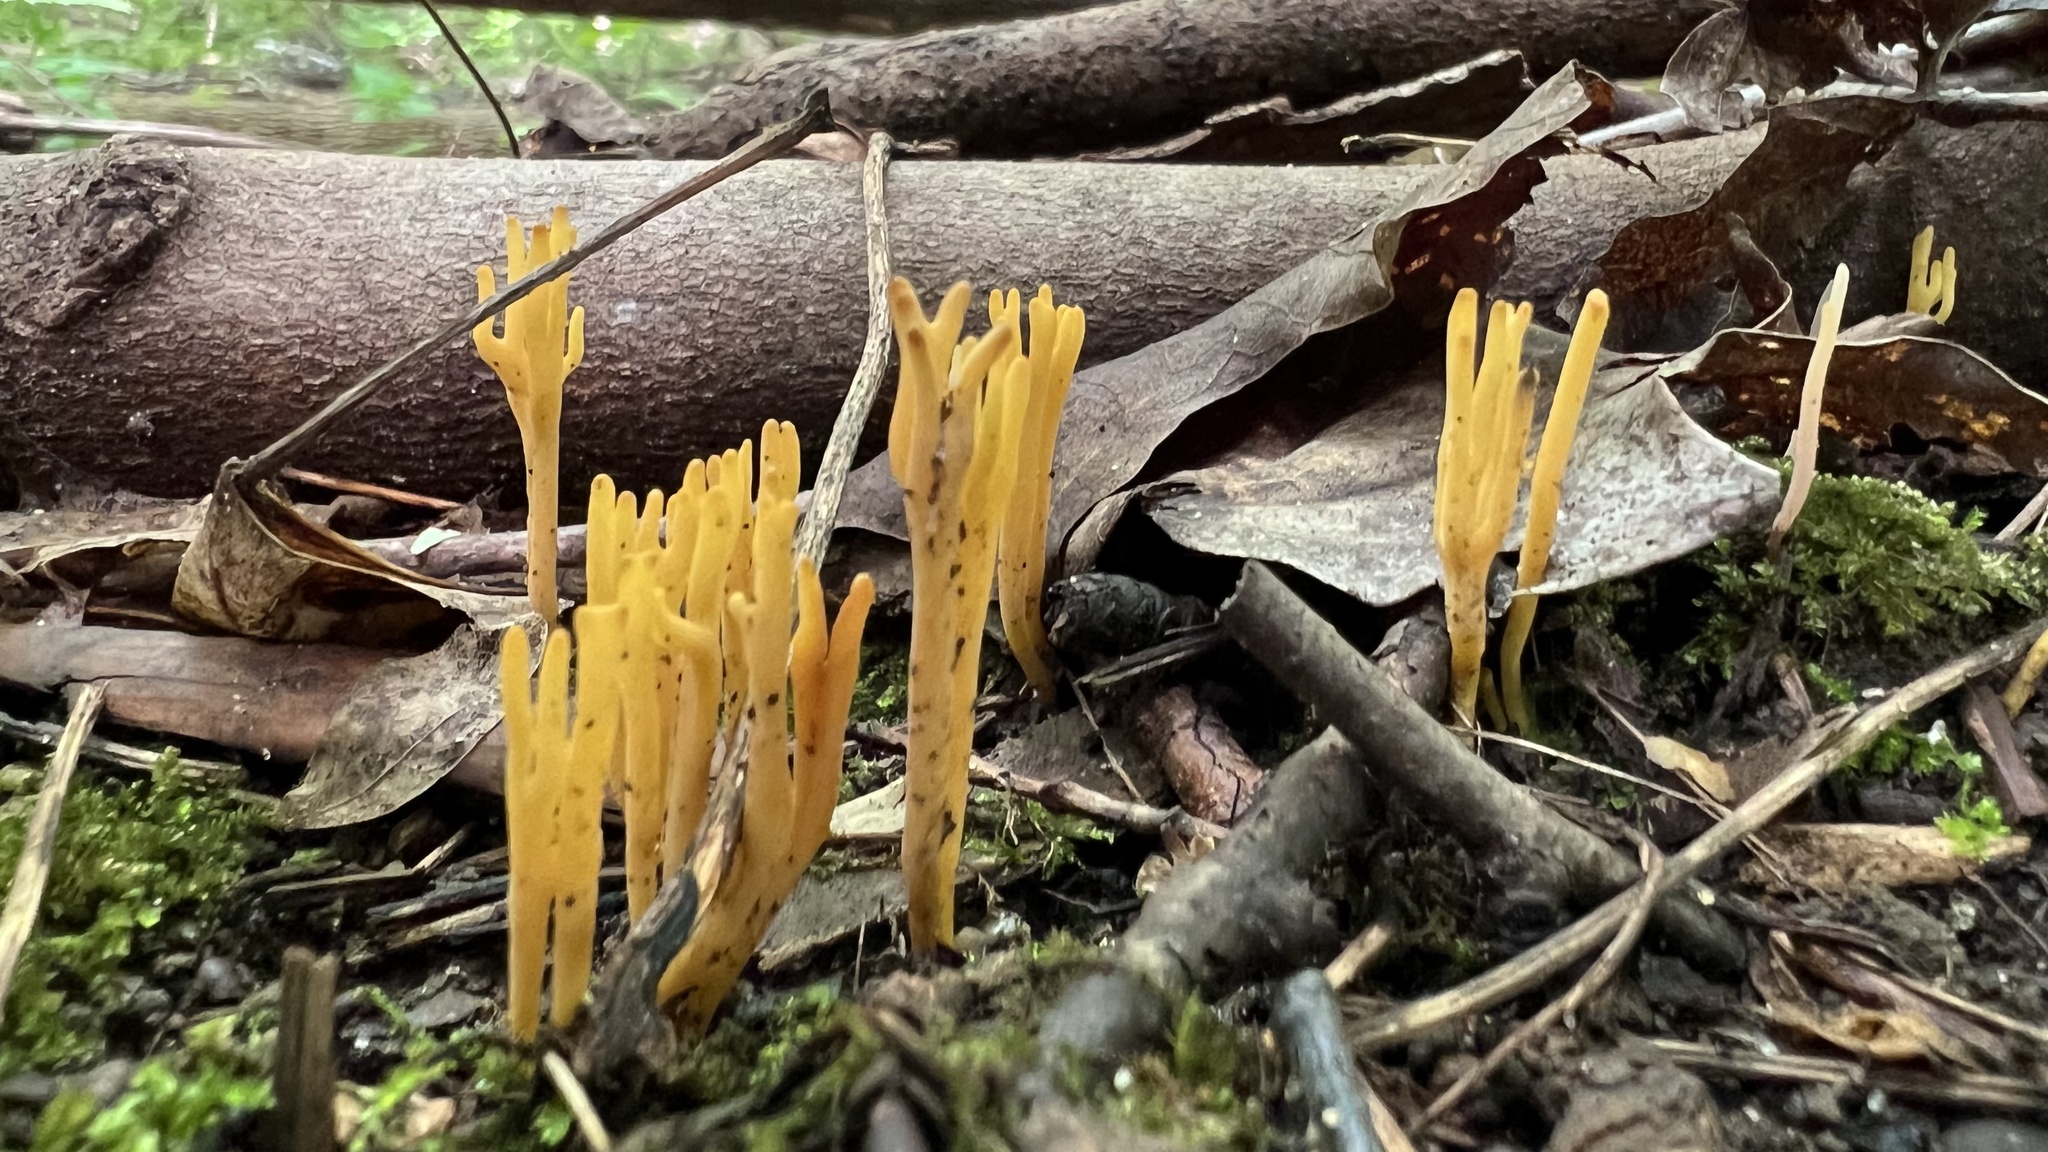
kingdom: Fungi
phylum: Basidiomycota
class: Agaricomycetes
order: Agaricales
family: Clavariaceae
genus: Clavulinopsis
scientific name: Clavulinopsis corniculata
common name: Meadow coral
